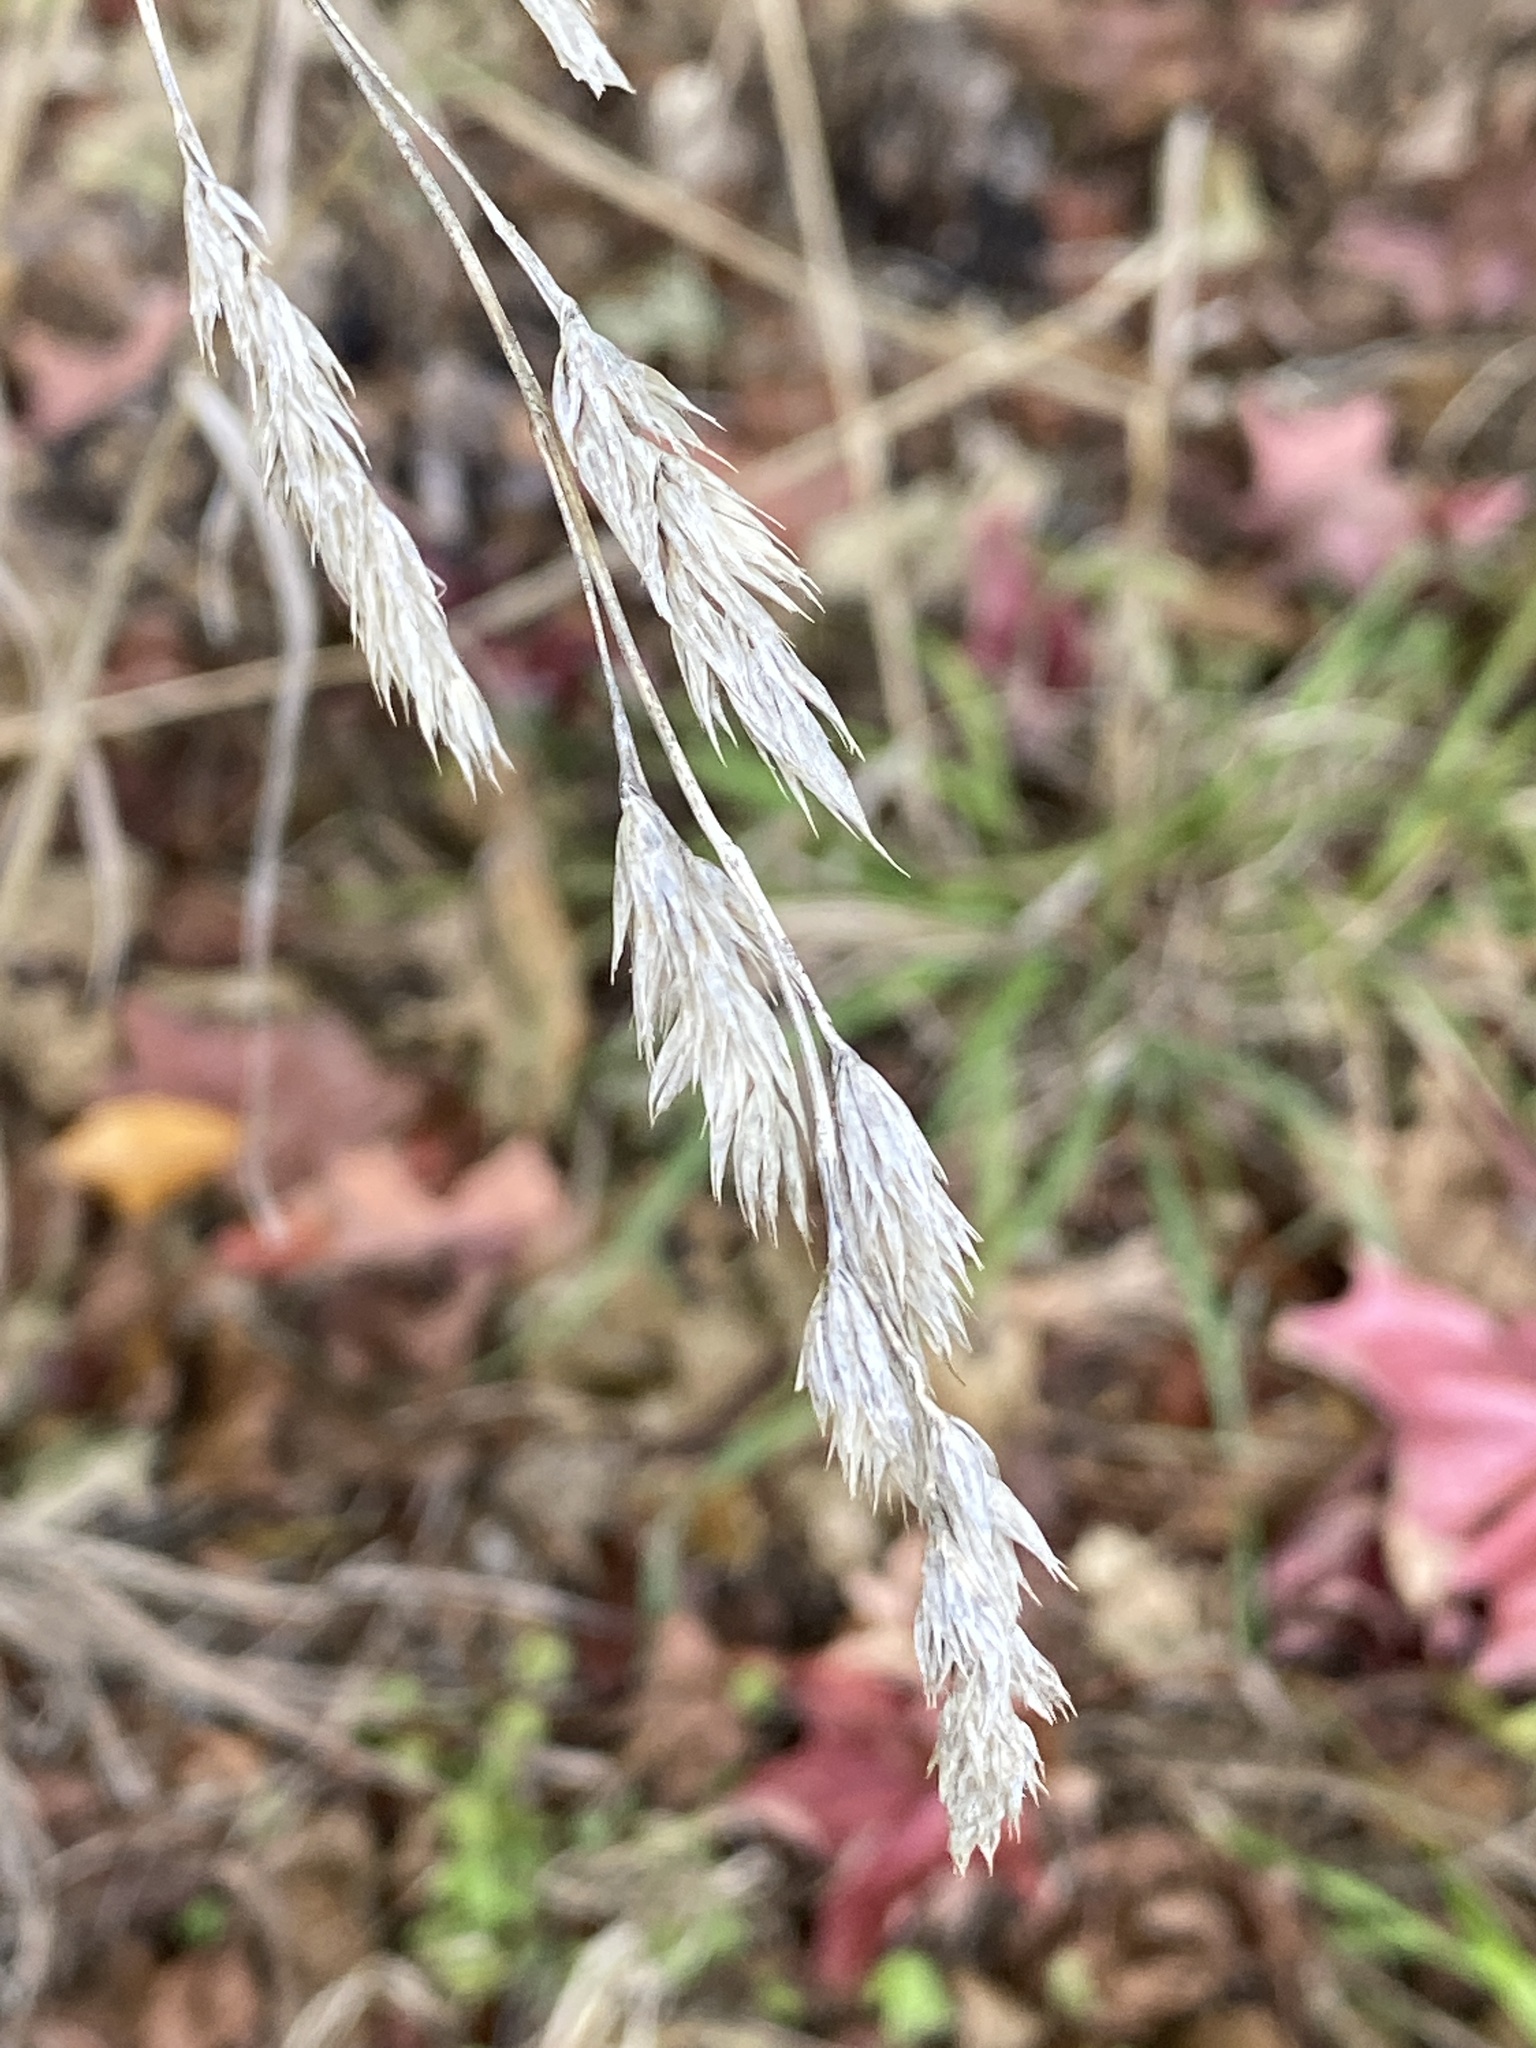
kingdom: Plantae
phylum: Tracheophyta
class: Liliopsida
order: Poales
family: Poaceae
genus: Dactylis
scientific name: Dactylis glomerata
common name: Orchardgrass
